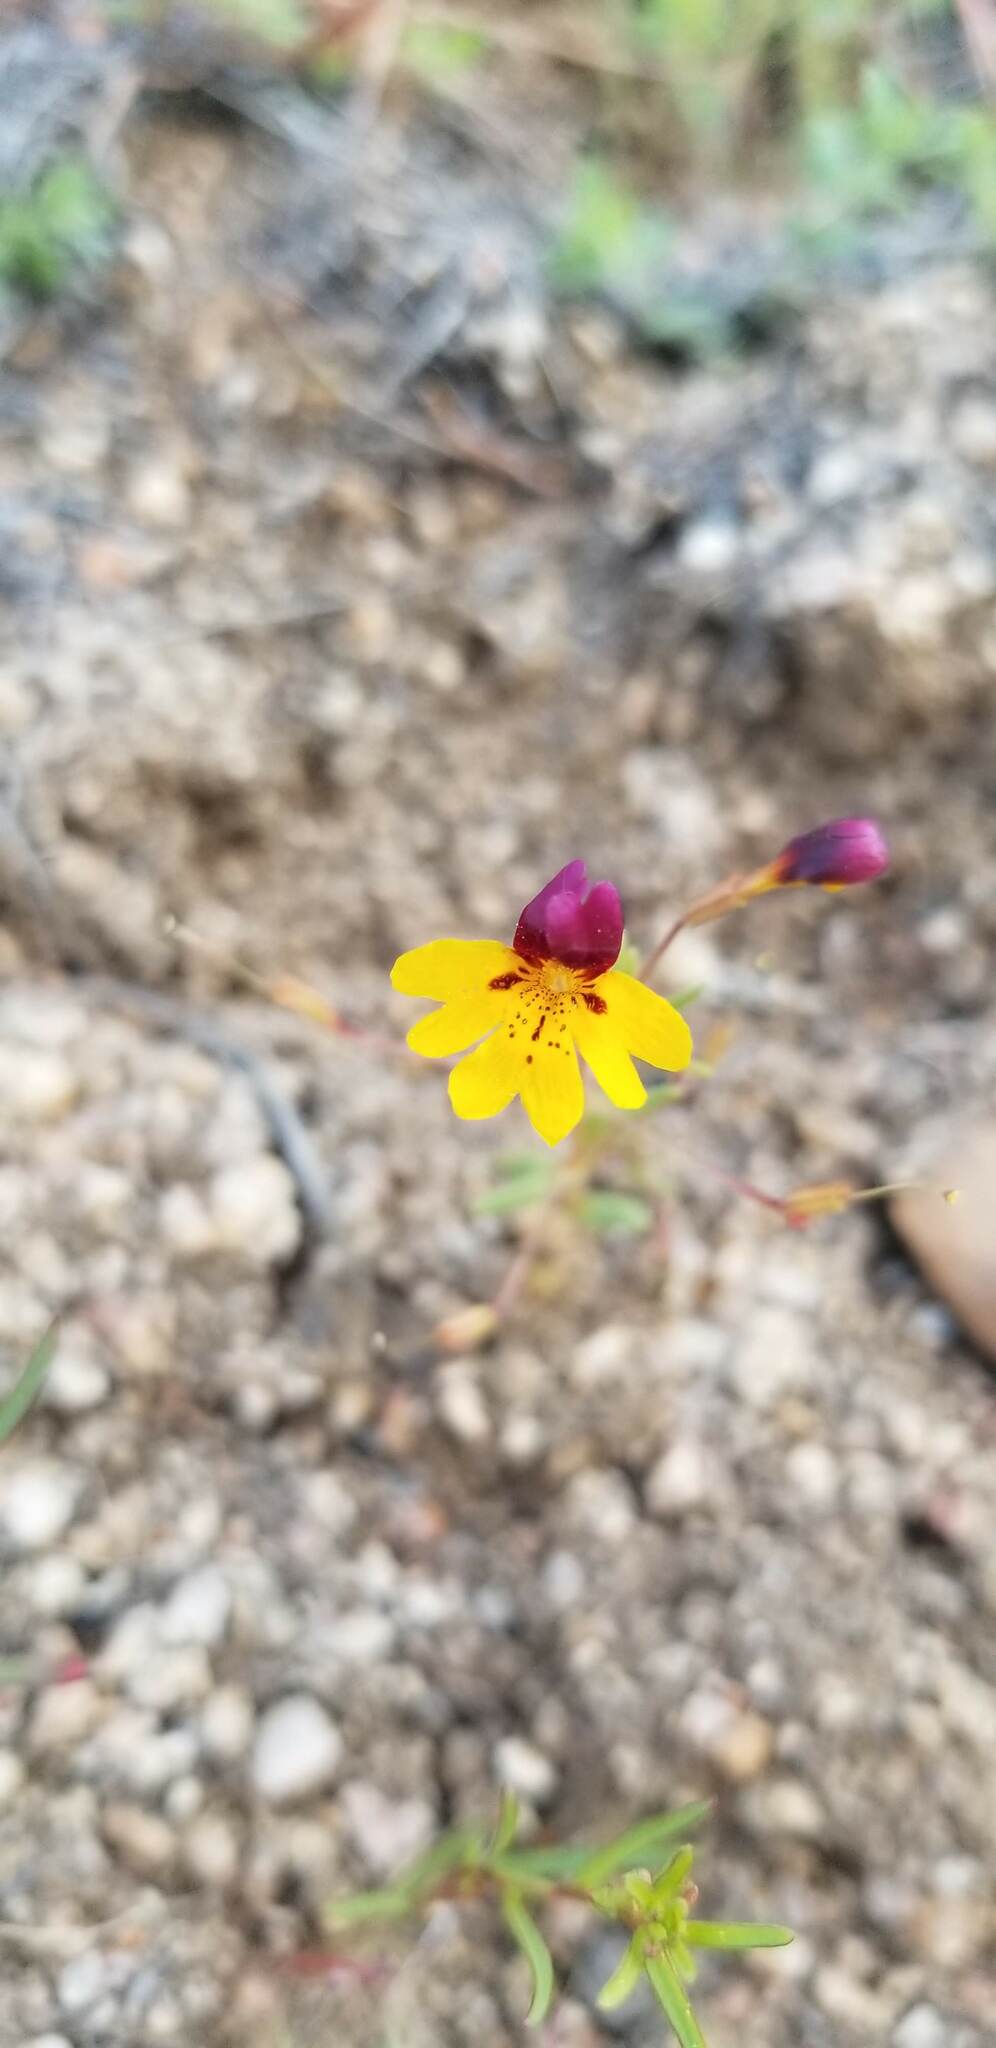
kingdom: Plantae
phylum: Tracheophyta
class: Magnoliopsida
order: Lamiales
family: Phrymaceae
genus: Erythranthe
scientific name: Erythranthe barbata
